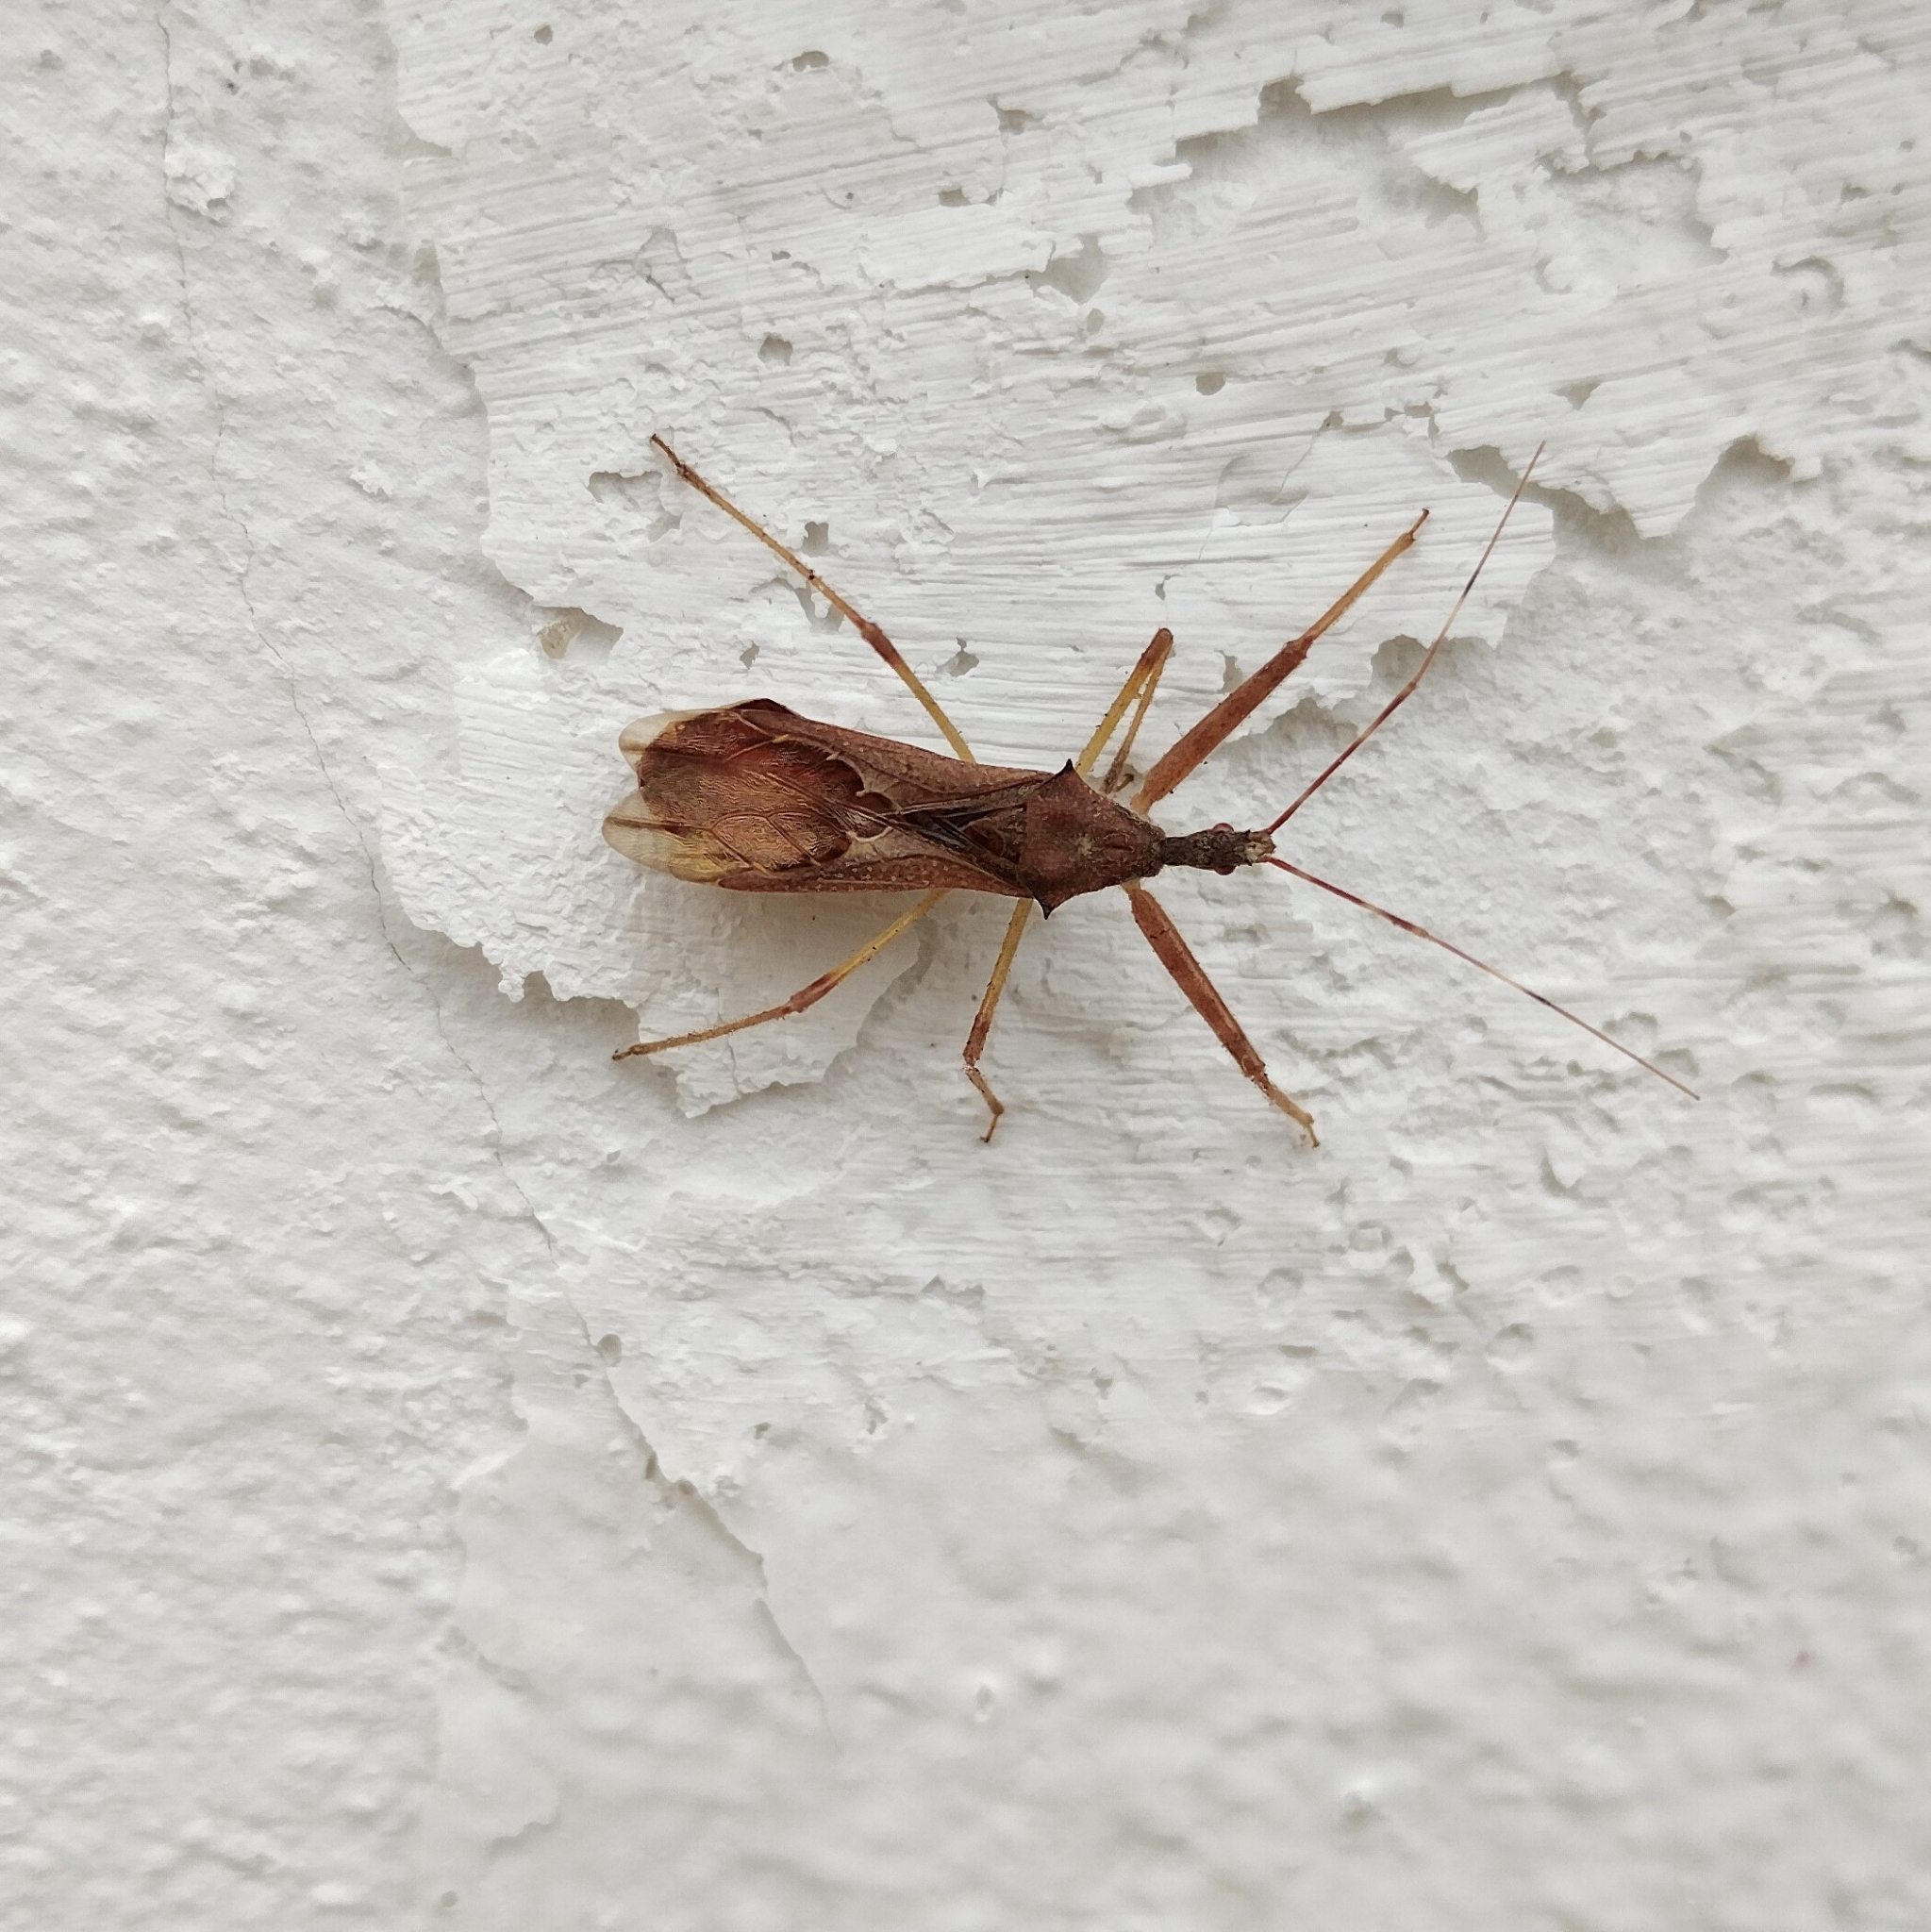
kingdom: Animalia
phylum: Arthropoda
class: Insecta
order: Hemiptera
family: Reduviidae
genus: Nagusta
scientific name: Nagusta goedelii
